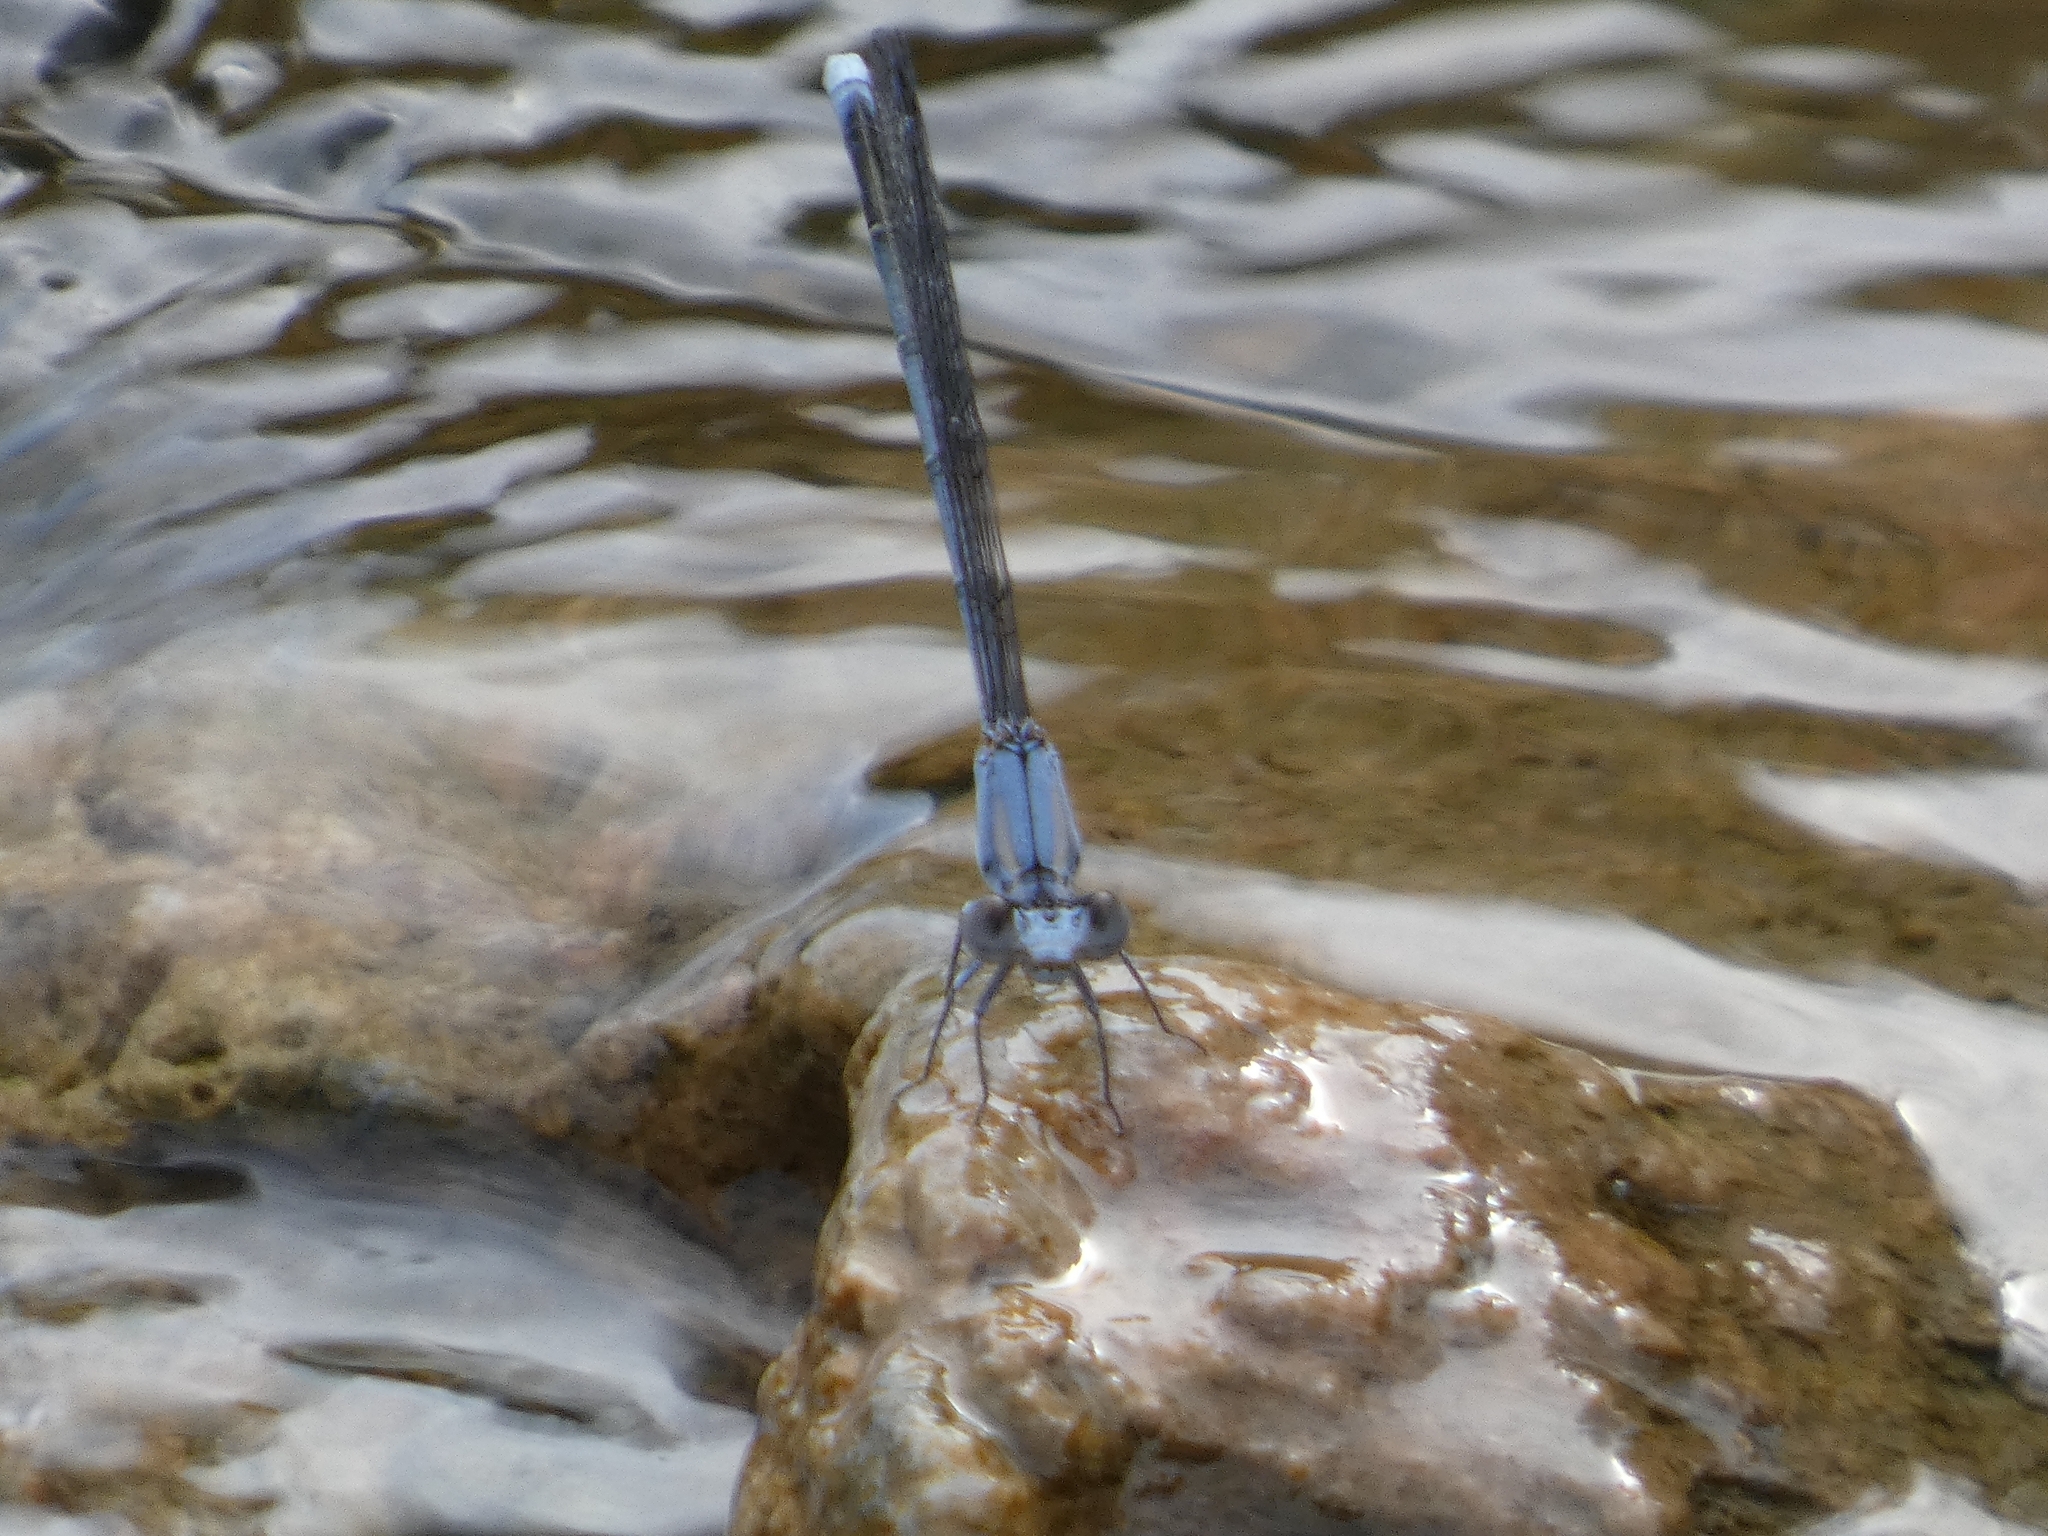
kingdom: Animalia
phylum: Arthropoda
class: Insecta
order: Odonata
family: Coenagrionidae
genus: Argia
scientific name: Argia moesta
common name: Powdered dancer
